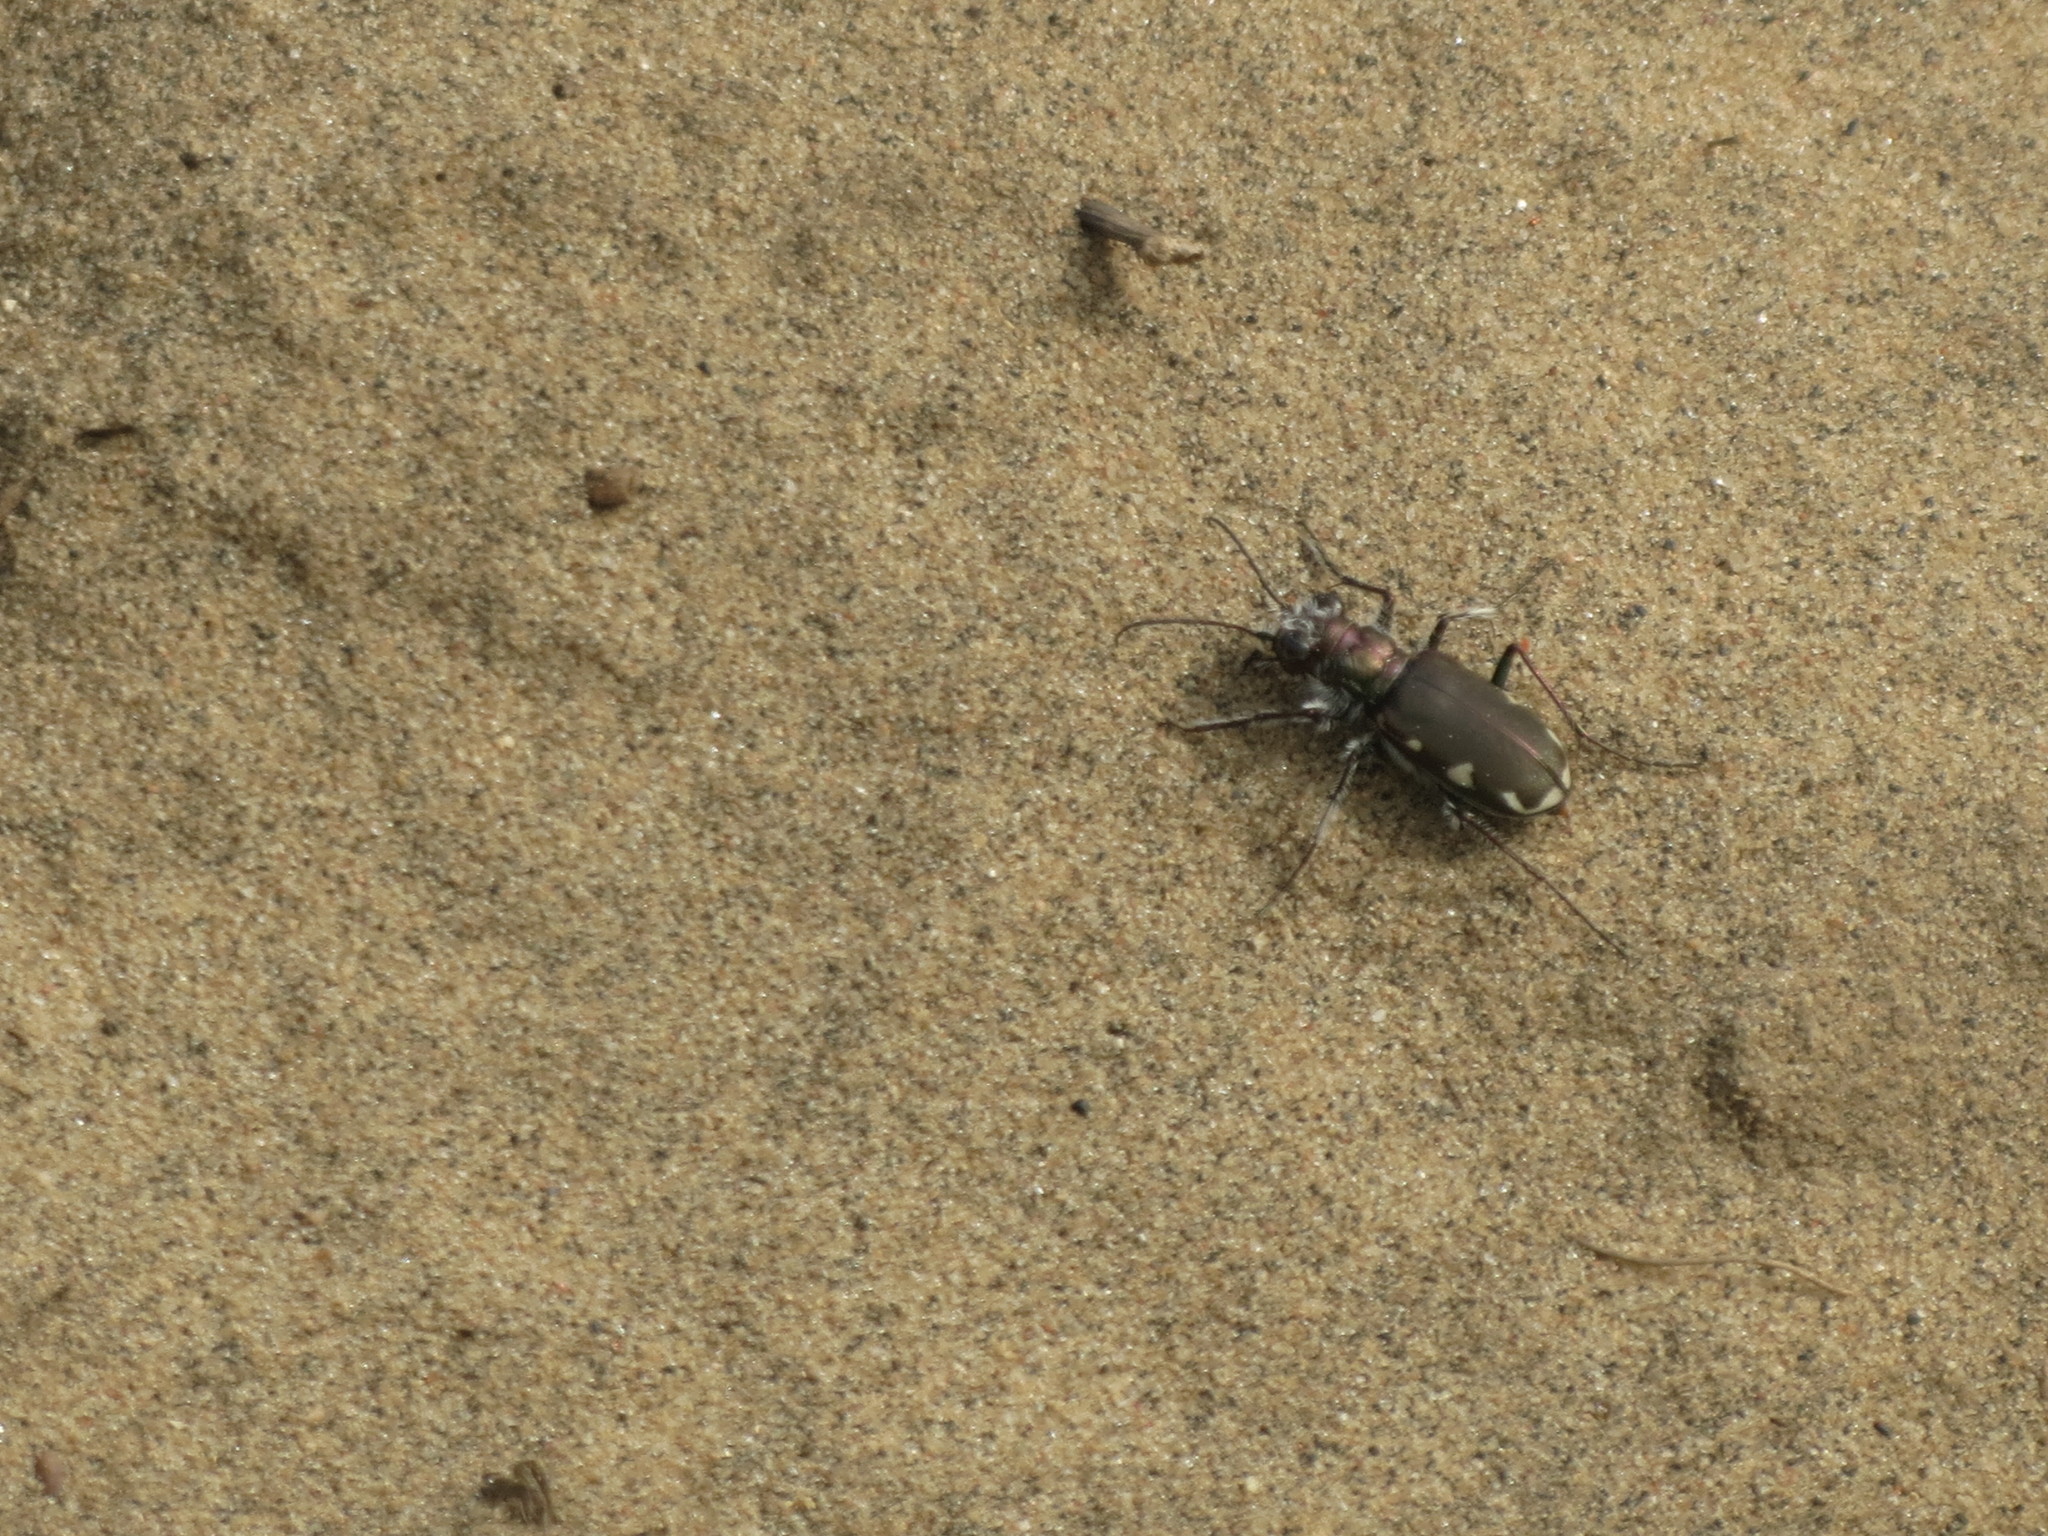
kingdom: Animalia
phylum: Arthropoda
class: Insecta
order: Coleoptera
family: Carabidae
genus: Cicindela
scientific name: Cicindela scutellaris
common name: Festive tiger beetle
